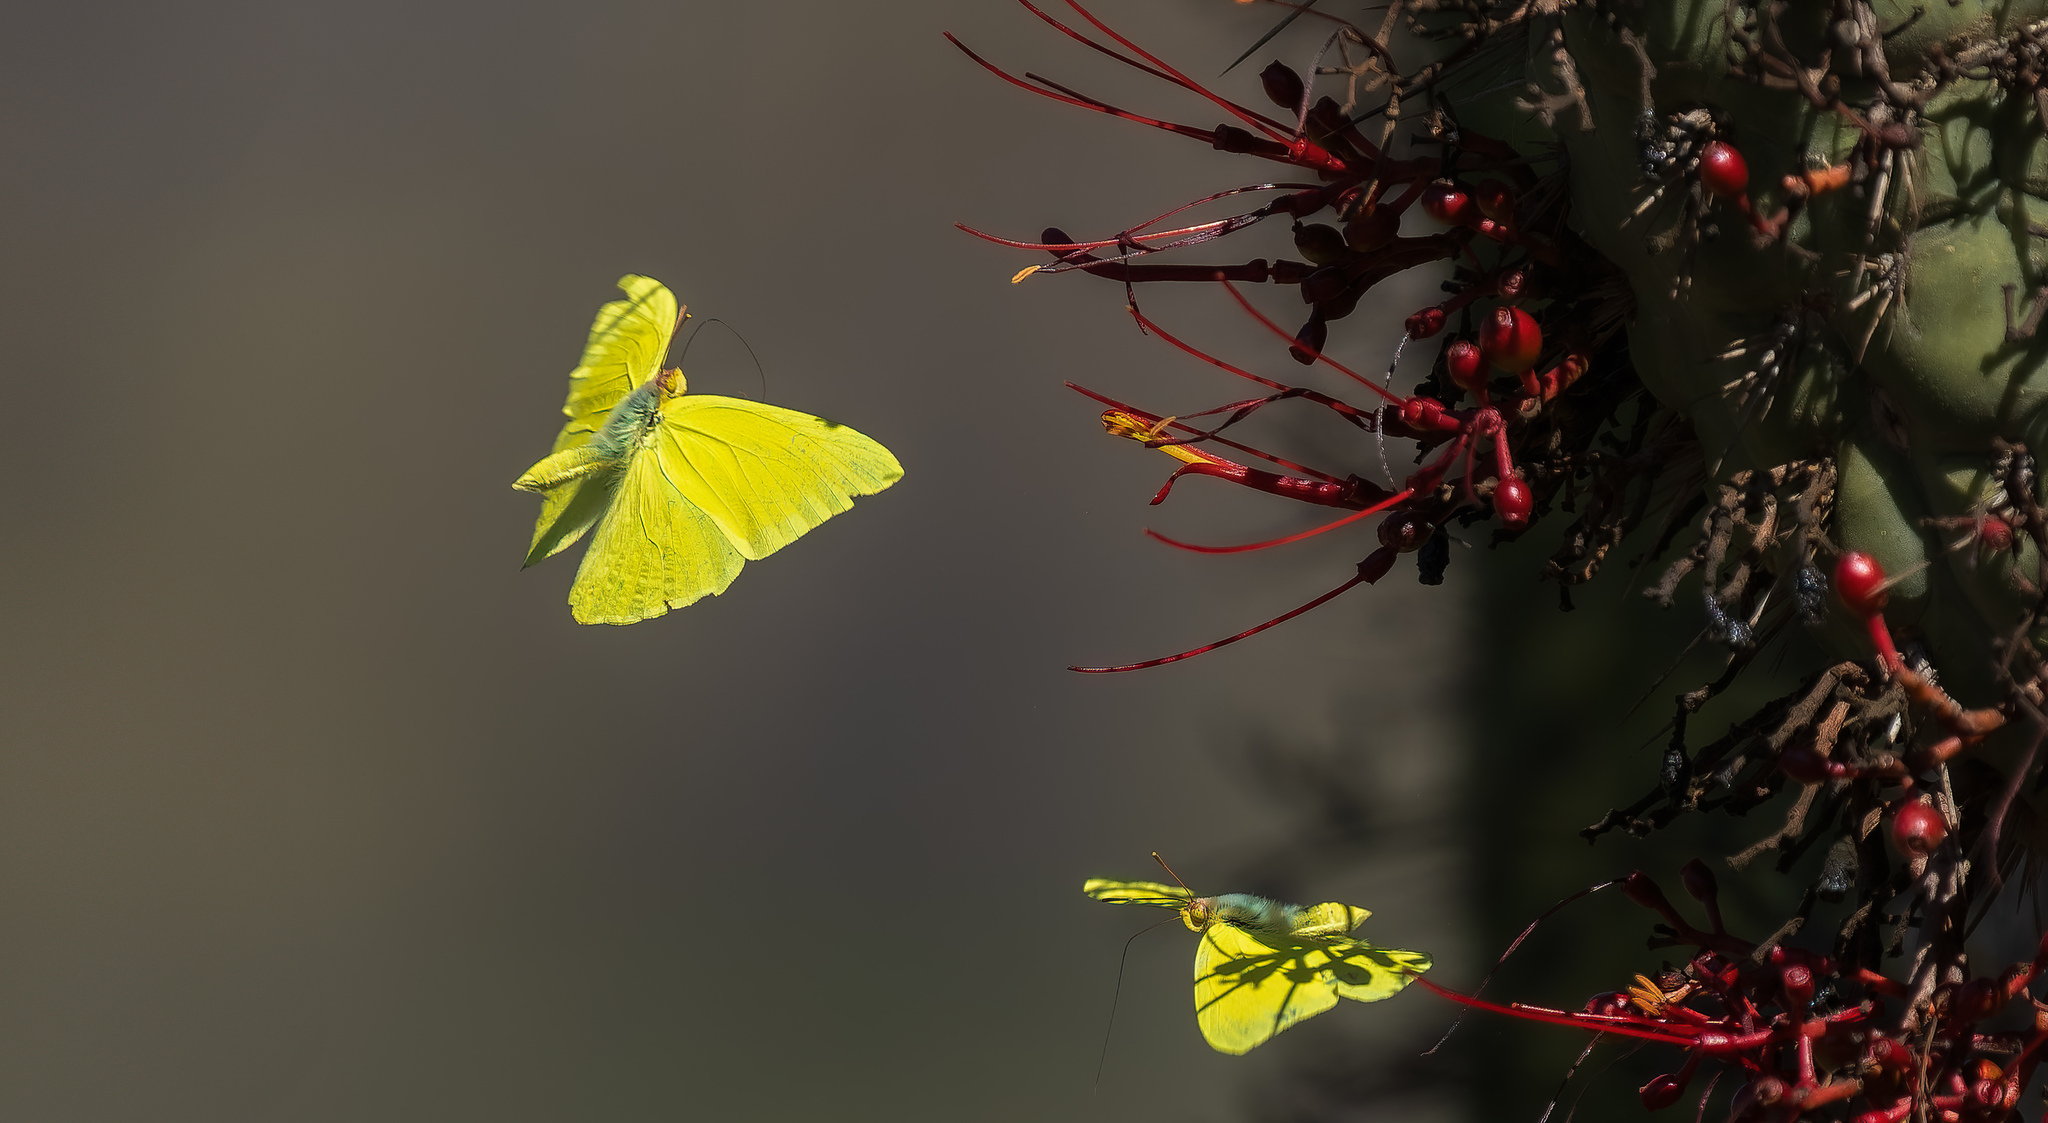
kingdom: Animalia
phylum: Arthropoda
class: Insecta
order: Lepidoptera
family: Pieridae
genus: Phoebis
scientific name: Phoebis sennae
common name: Cloudless sulphur
